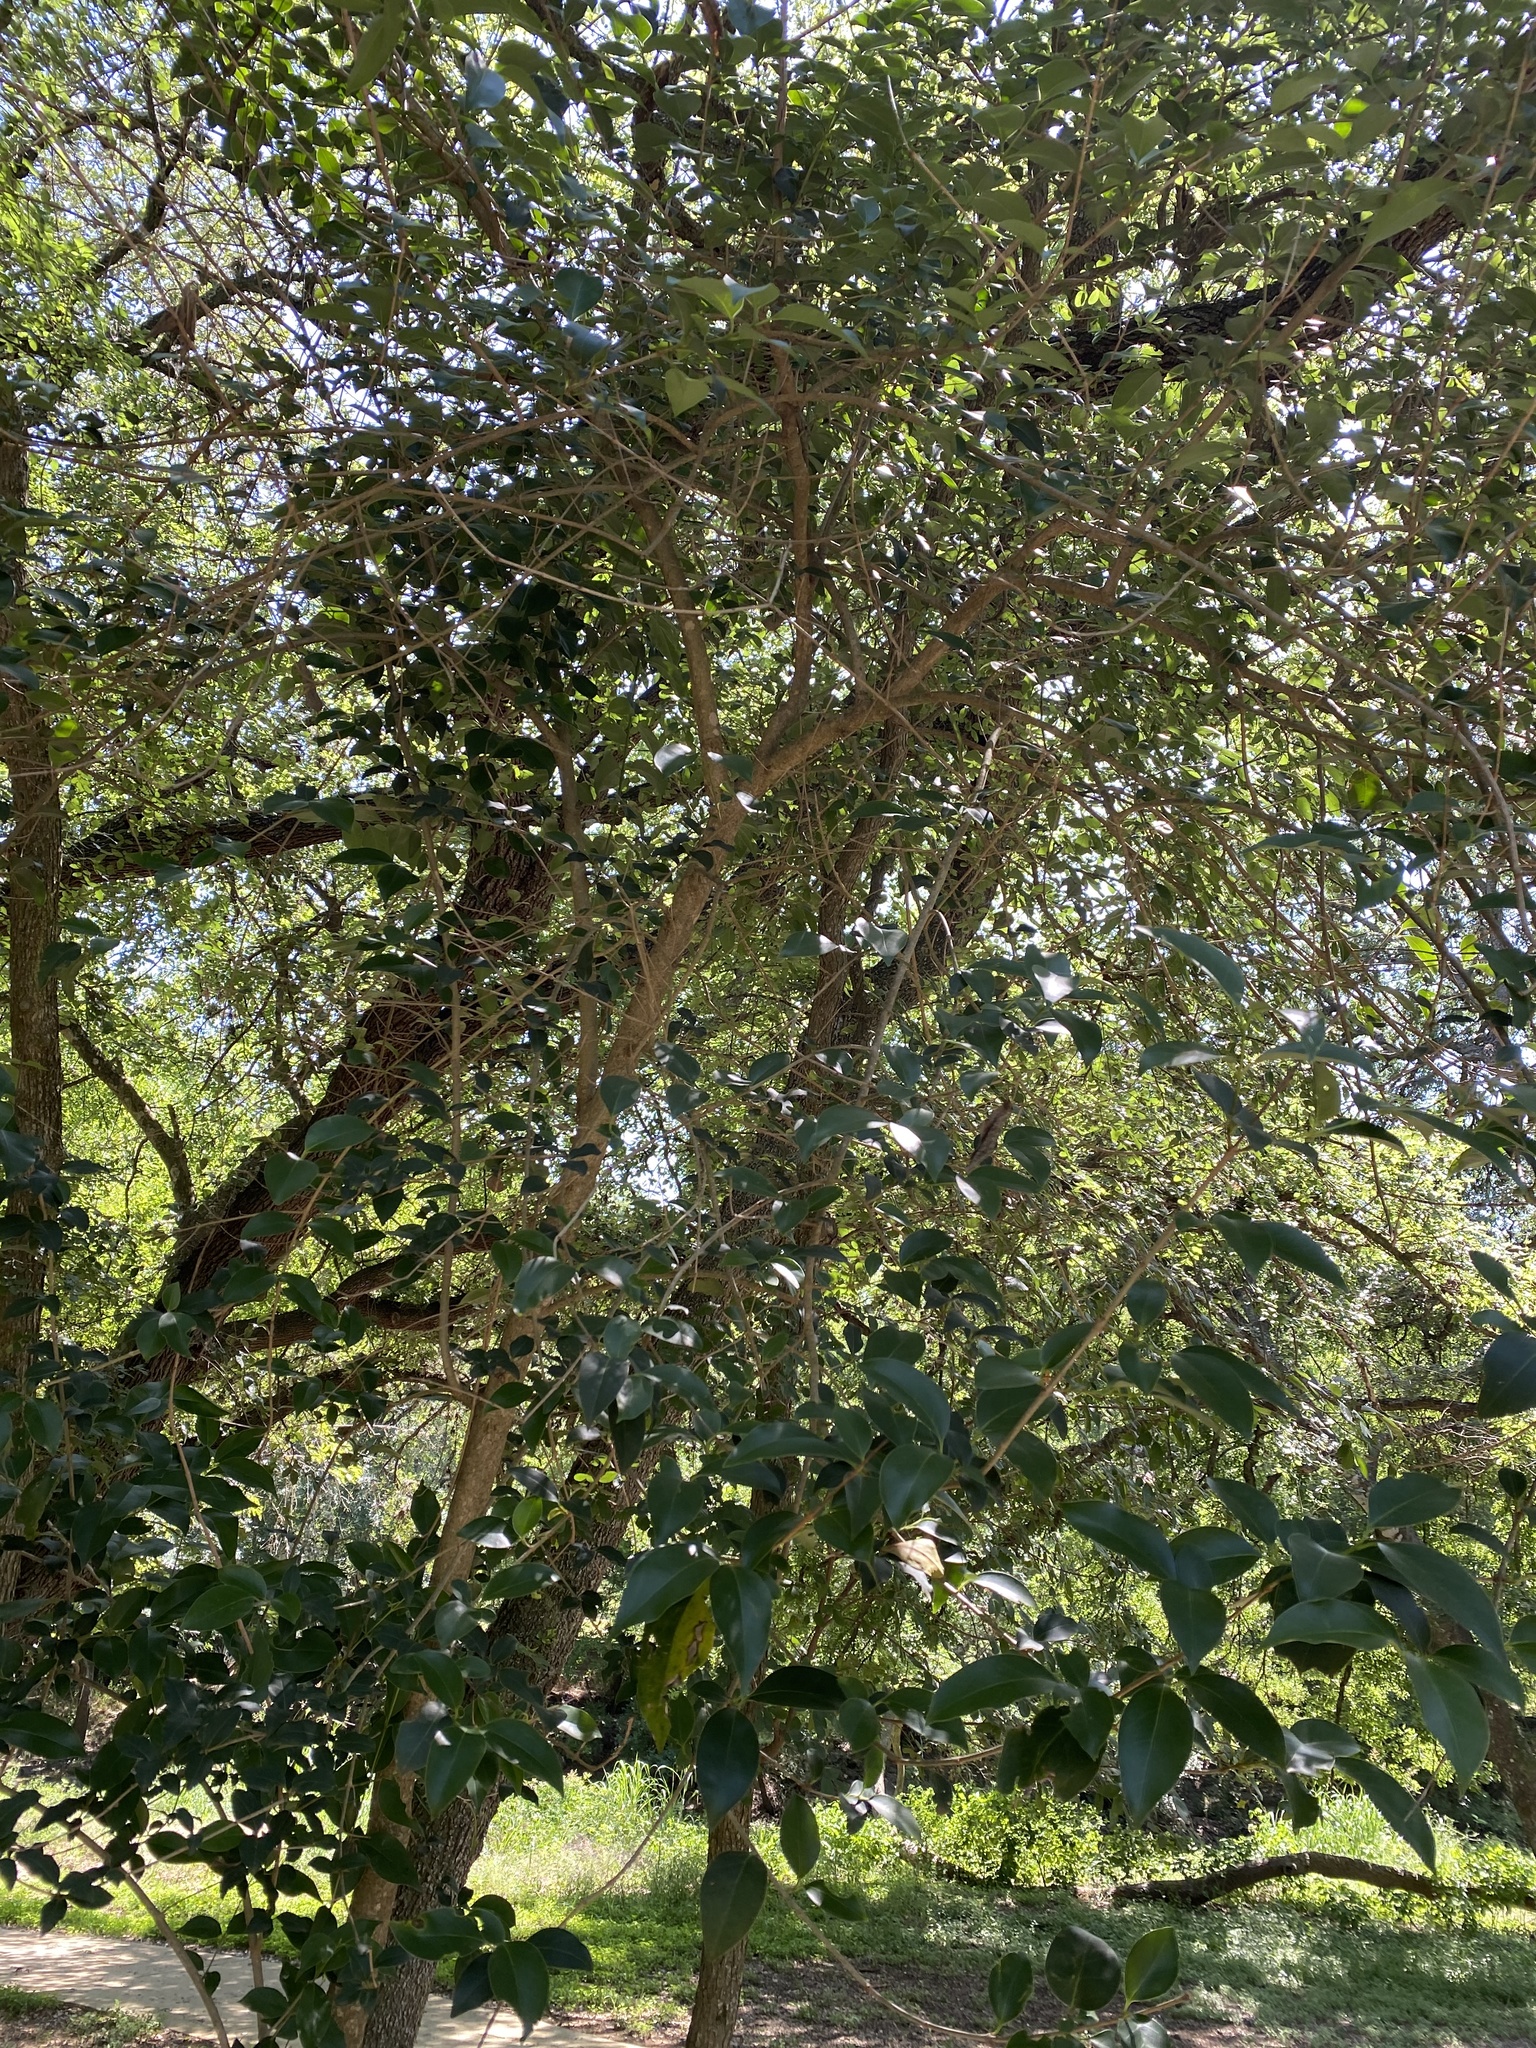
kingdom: Plantae
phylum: Tracheophyta
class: Magnoliopsida
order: Lamiales
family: Oleaceae
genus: Ligustrum
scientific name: Ligustrum lucidum
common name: Glossy privet
